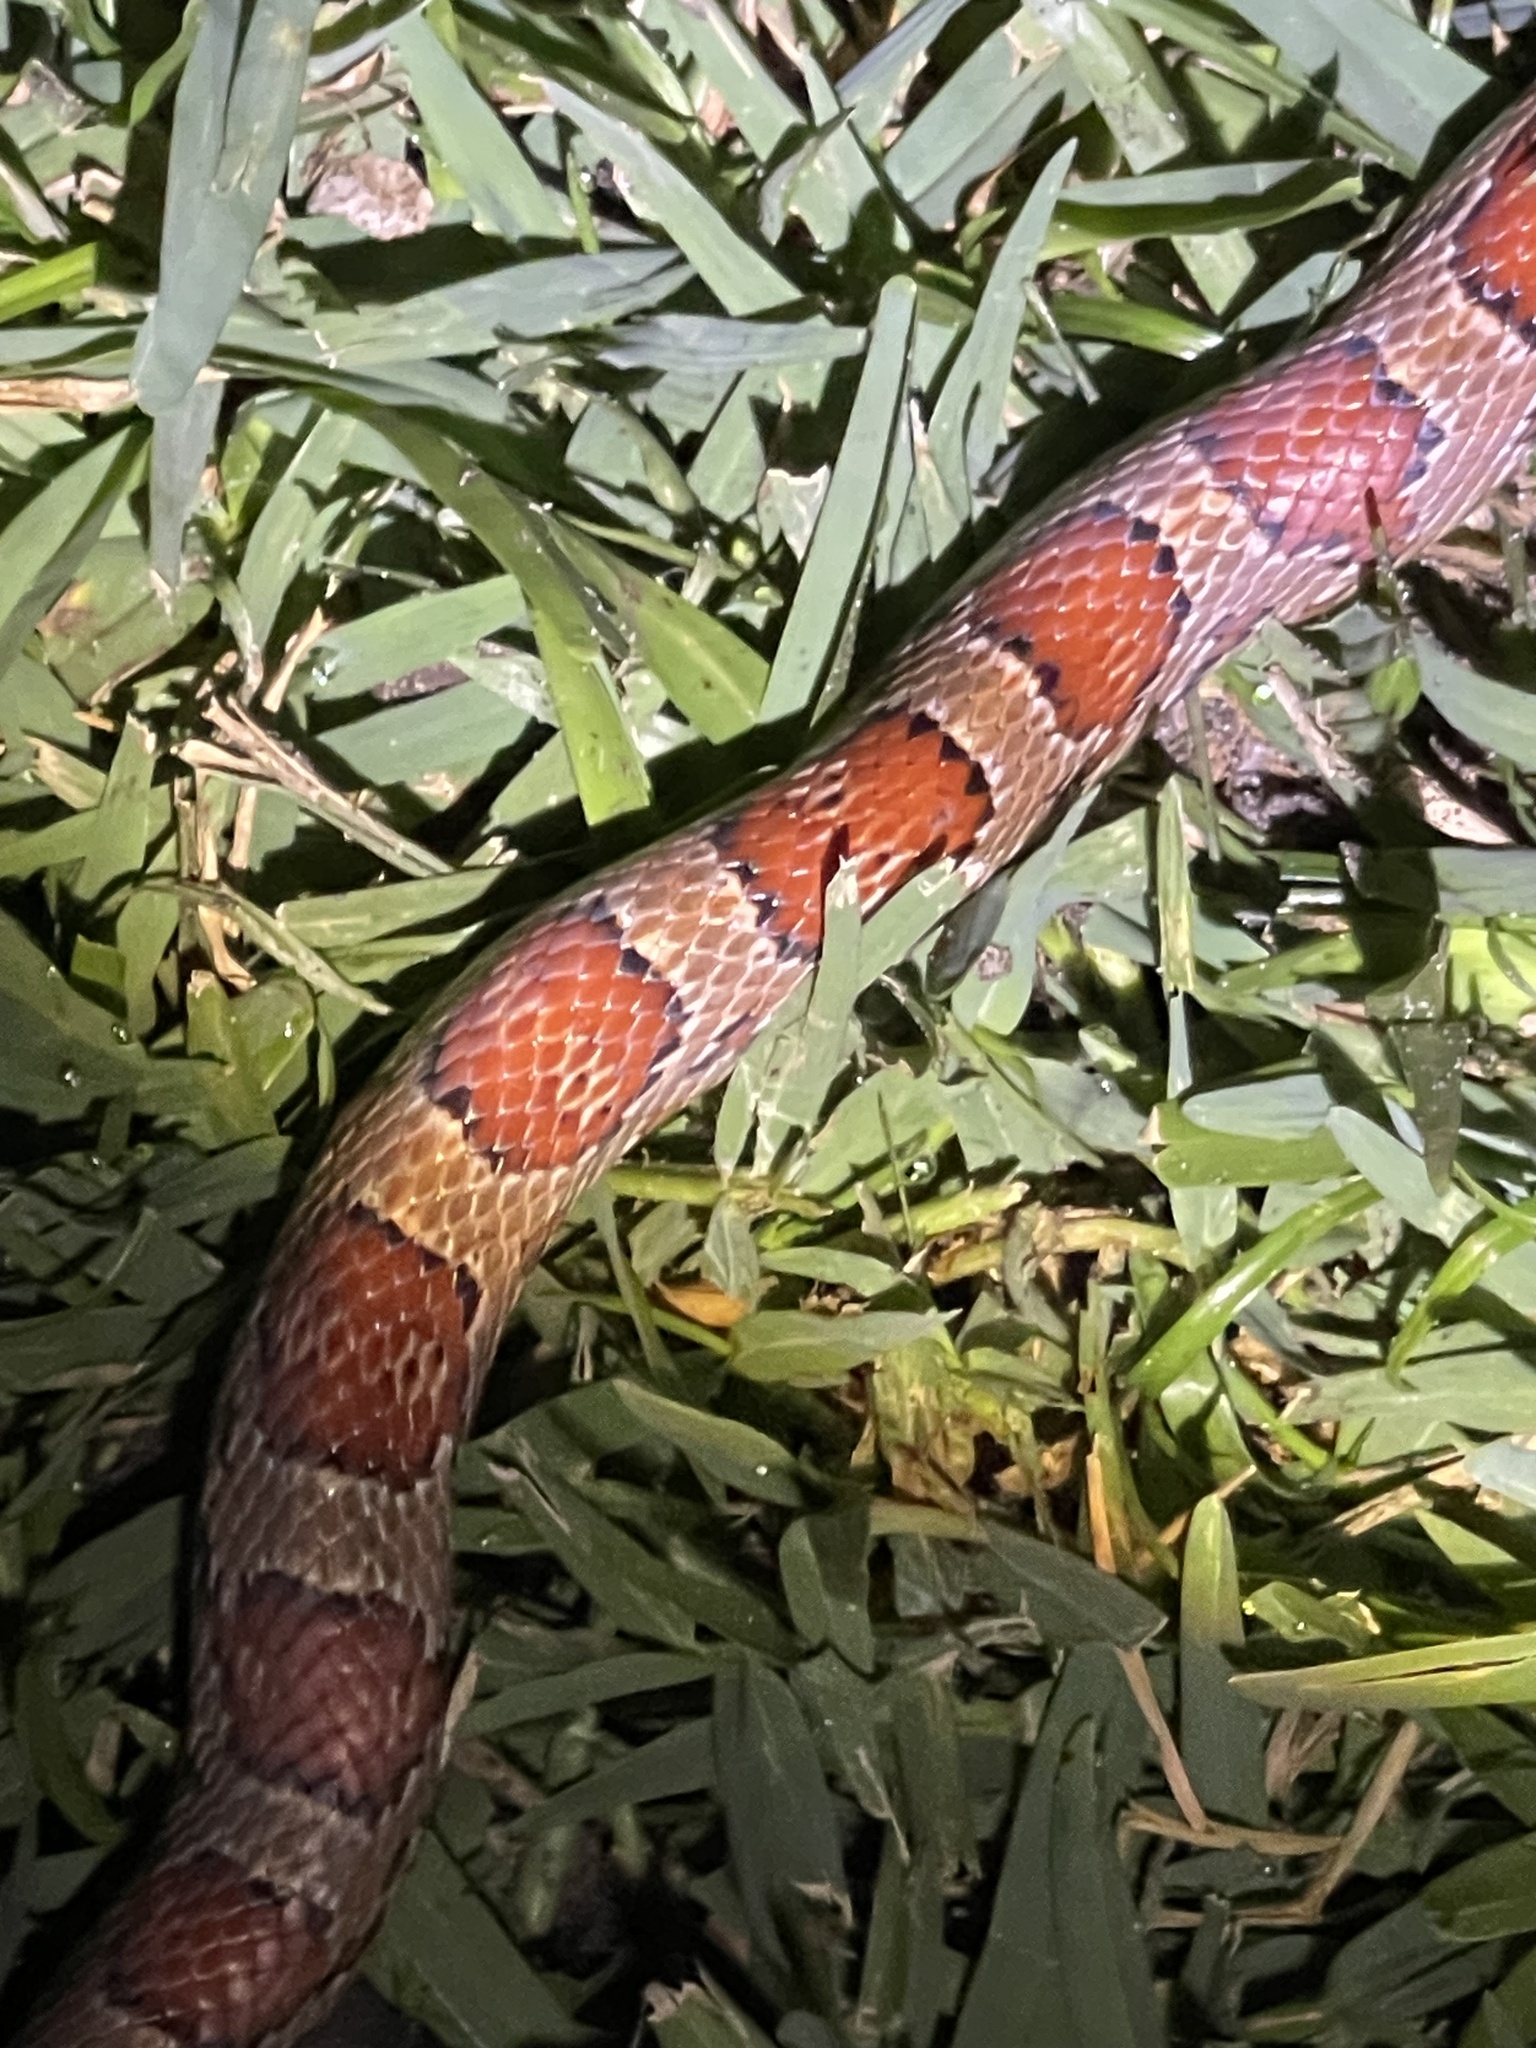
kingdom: Animalia
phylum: Chordata
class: Squamata
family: Colubridae
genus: Pantherophis
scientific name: Pantherophis guttatus
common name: Red cornsnake
